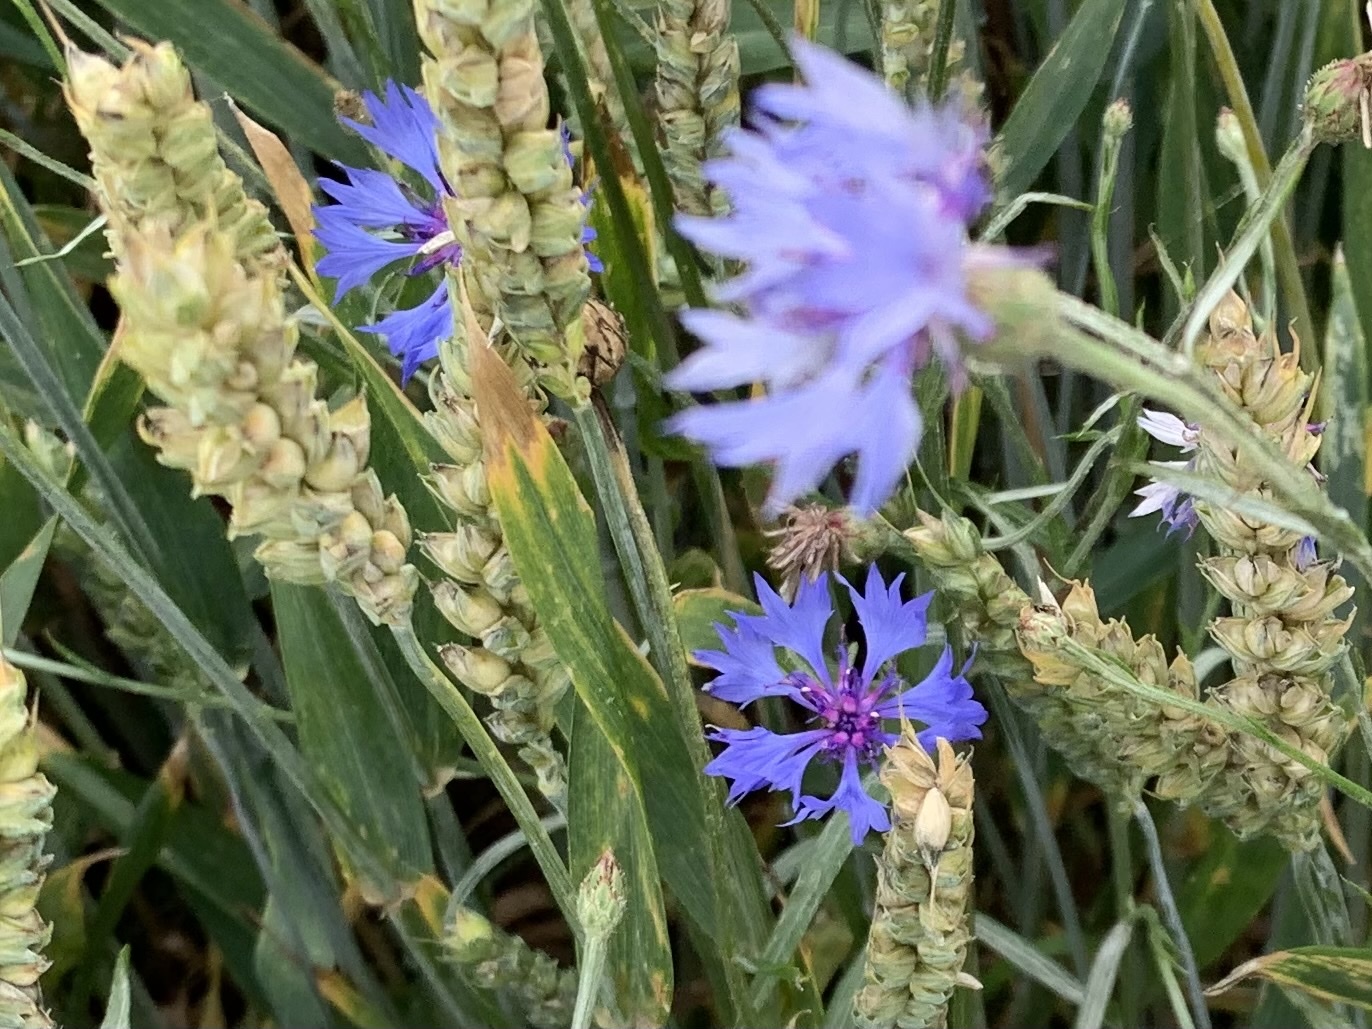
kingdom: Plantae
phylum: Tracheophyta
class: Magnoliopsida
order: Asterales
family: Asteraceae
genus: Centaurea
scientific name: Centaurea cyanus
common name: Cornflower
